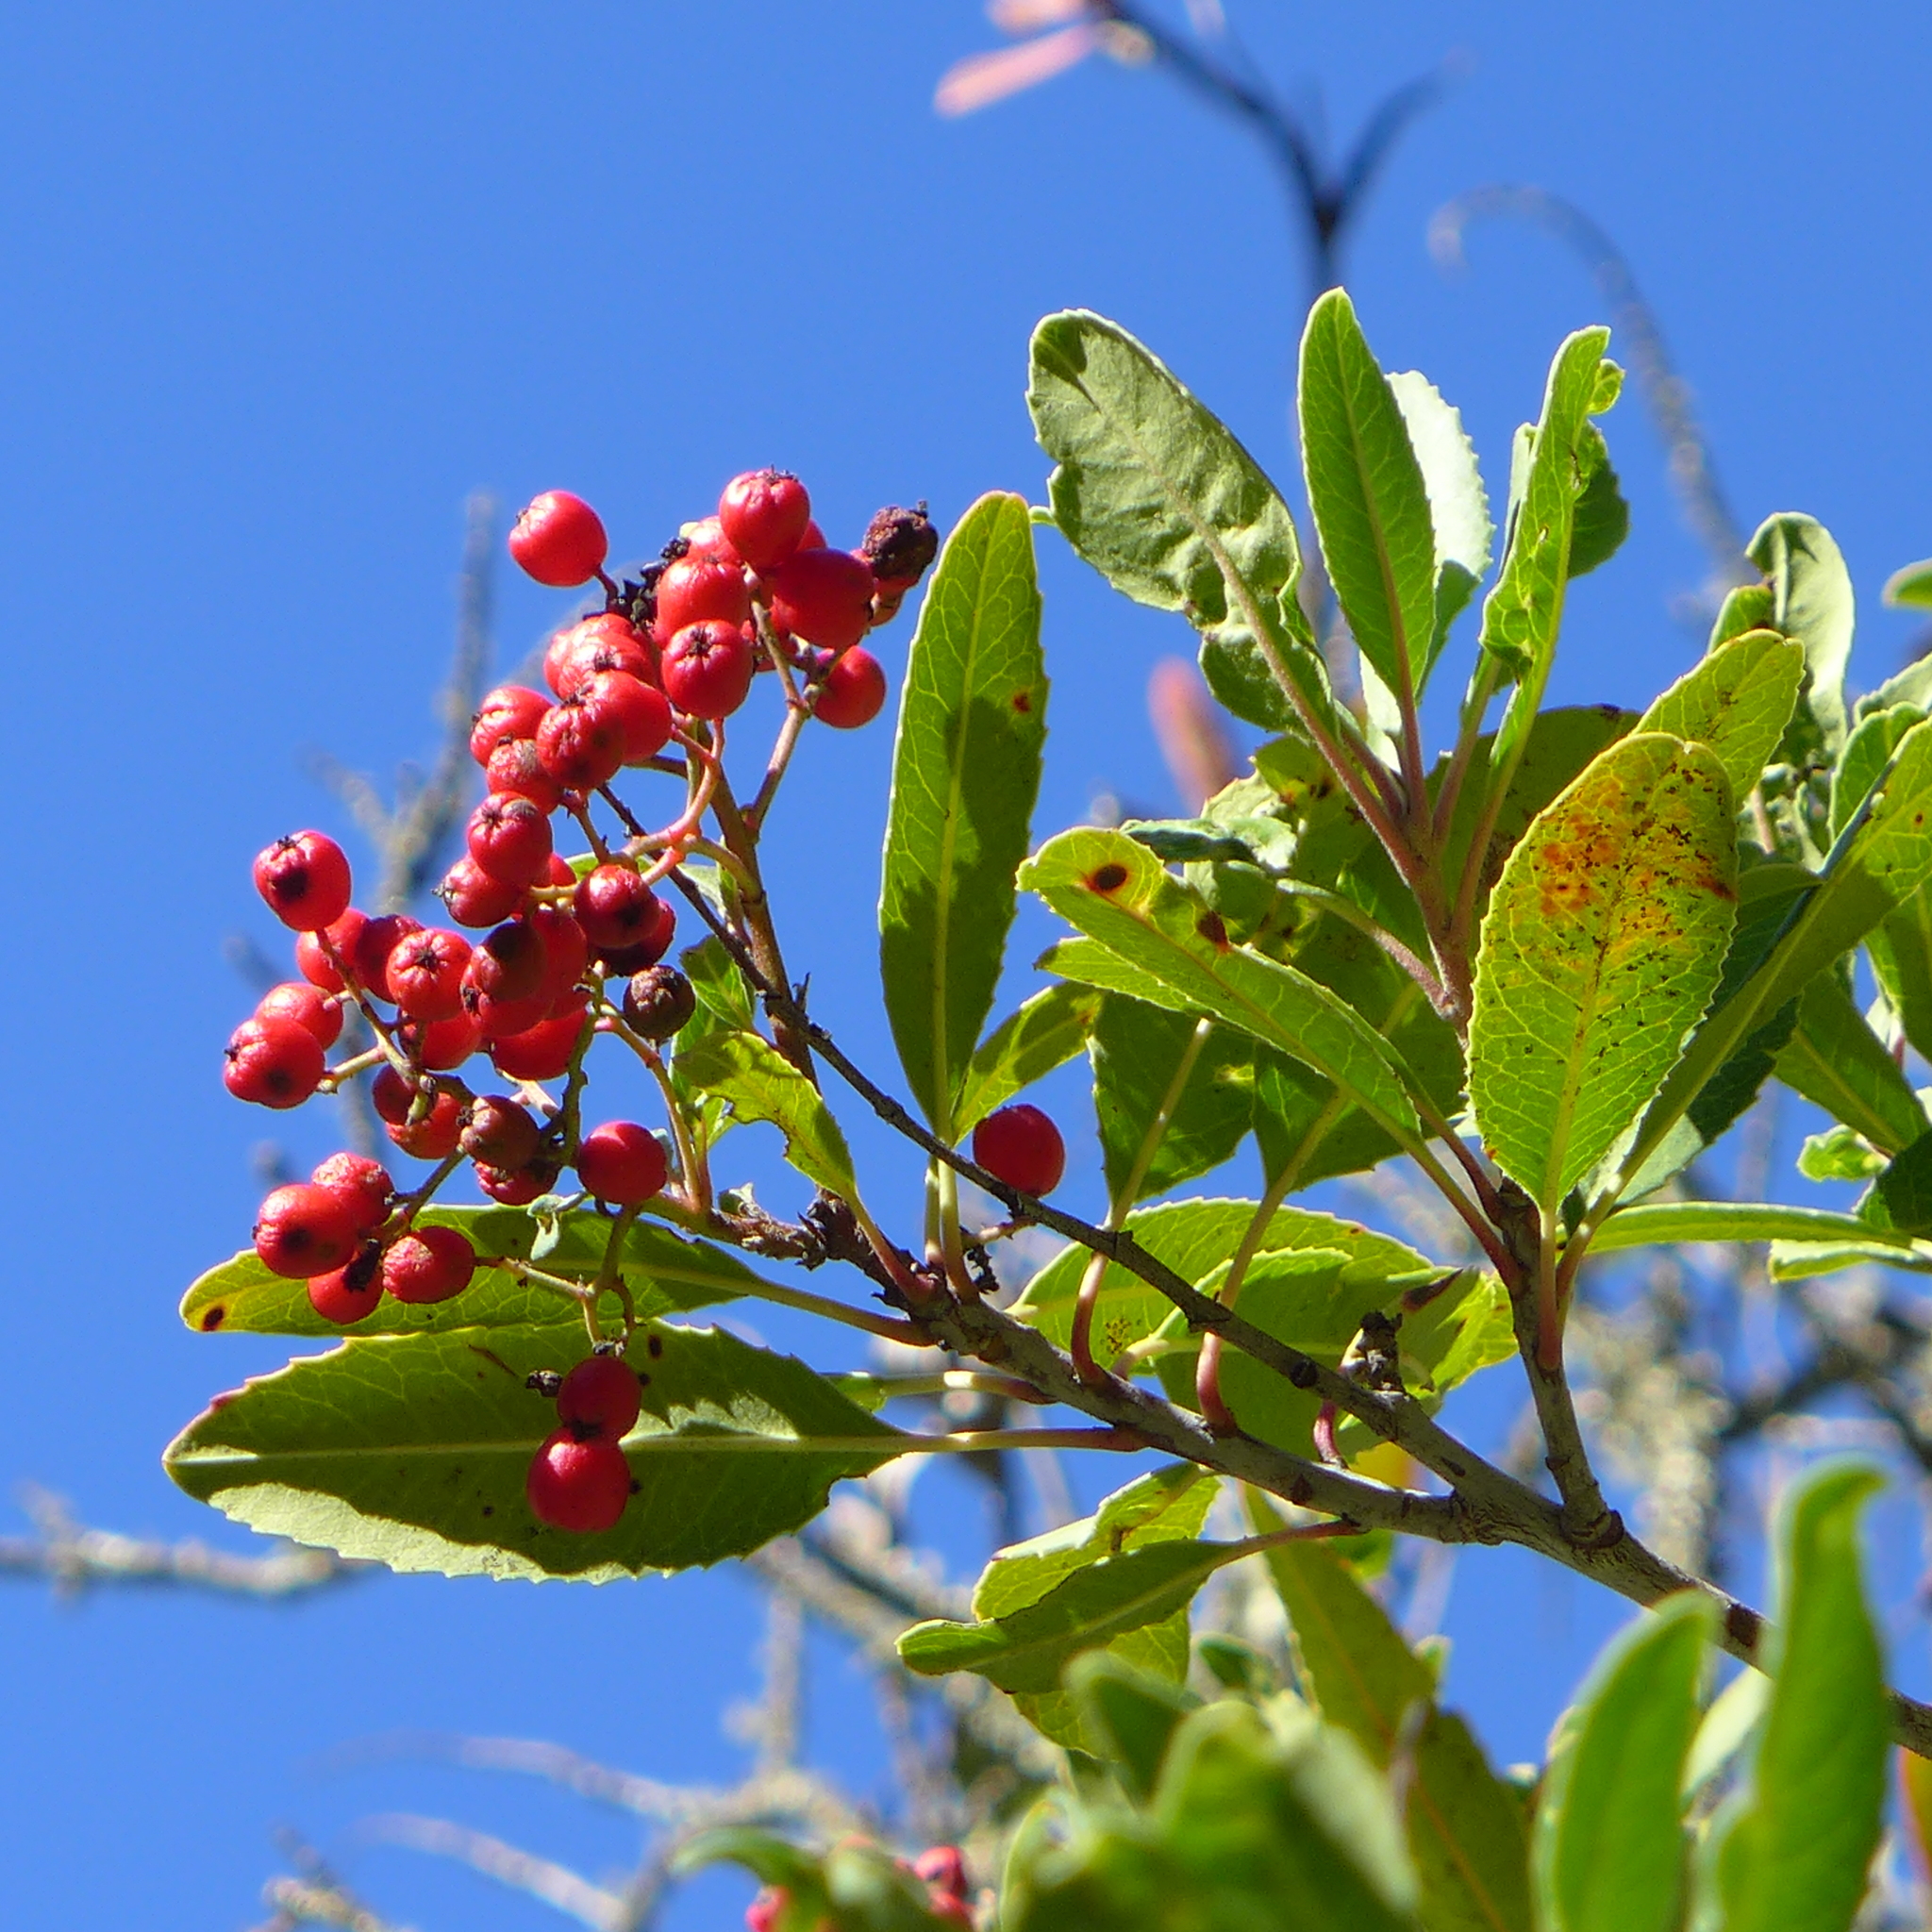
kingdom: Plantae
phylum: Tracheophyta
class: Magnoliopsida
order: Rosales
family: Rosaceae
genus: Heteromeles
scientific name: Heteromeles arbutifolia
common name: California-holly
